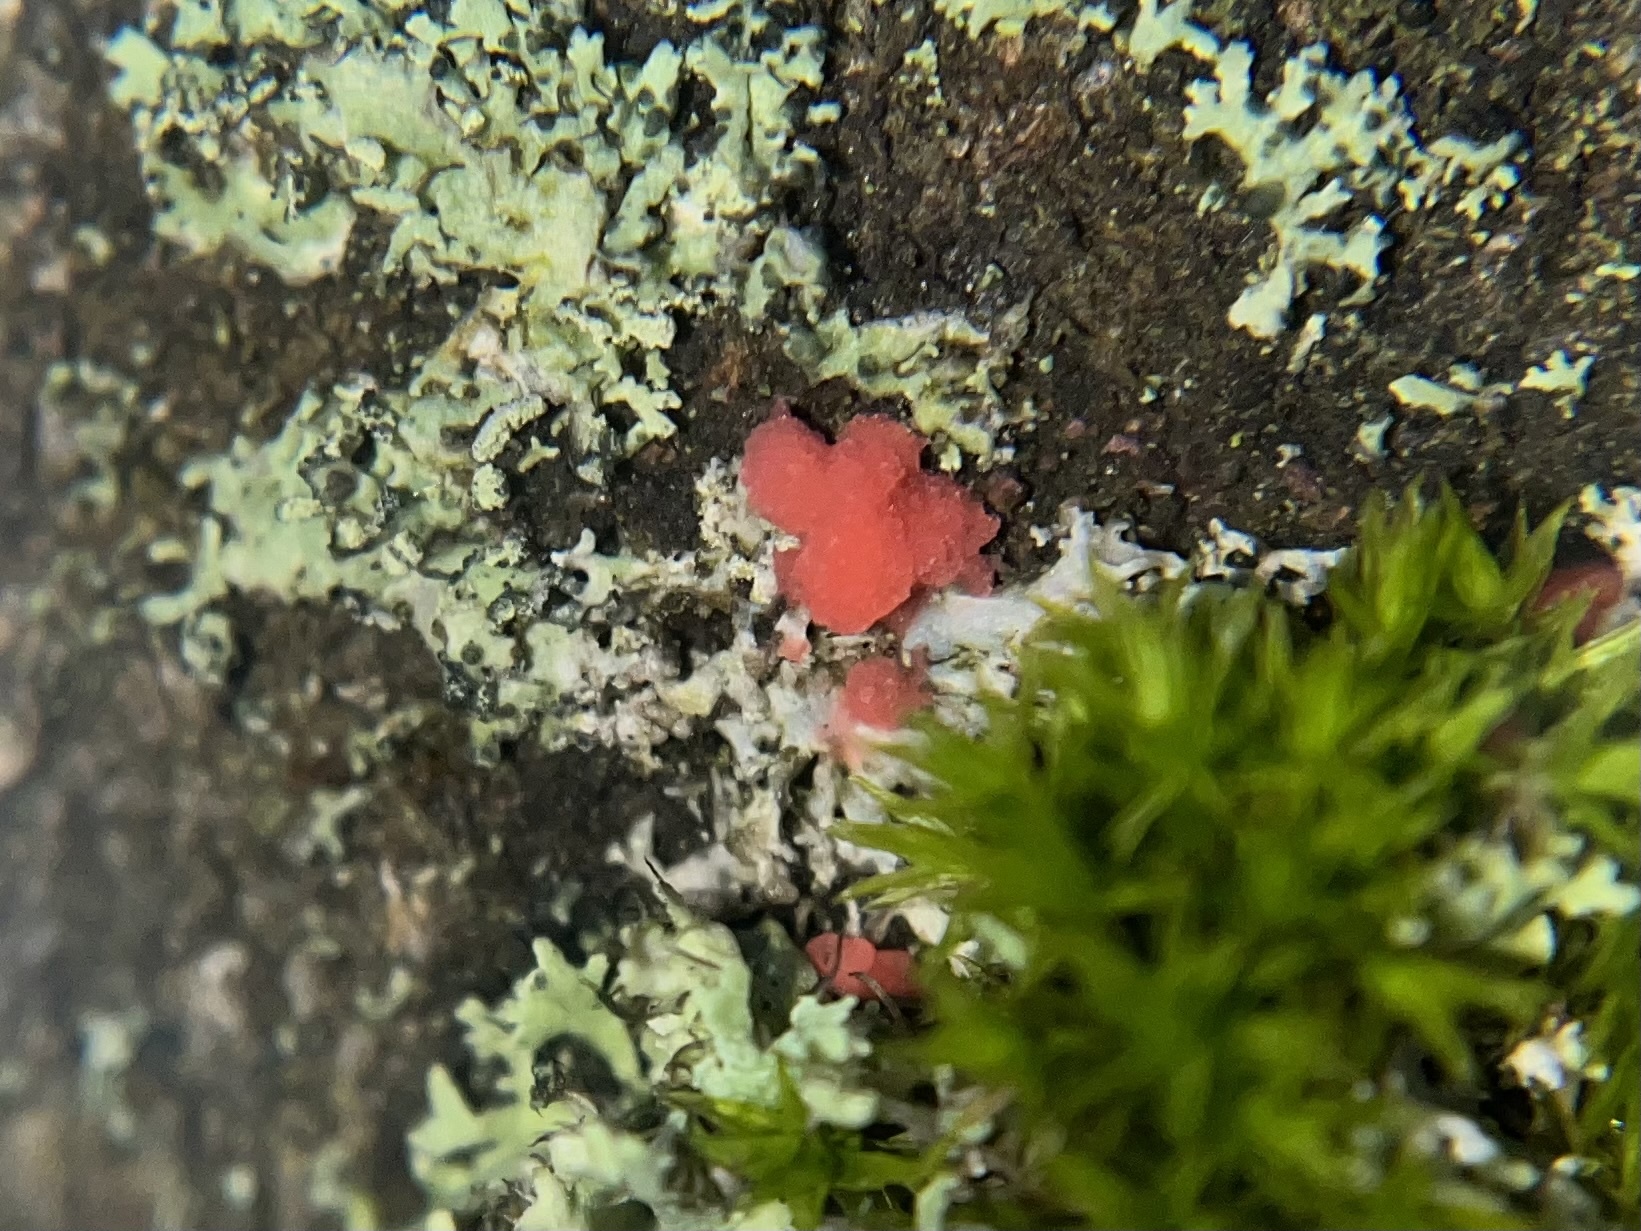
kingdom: Fungi
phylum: Ascomycota
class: Sordariomycetes
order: Hypocreales
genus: Illosporiopsis
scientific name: Illosporiopsis christiansenii
